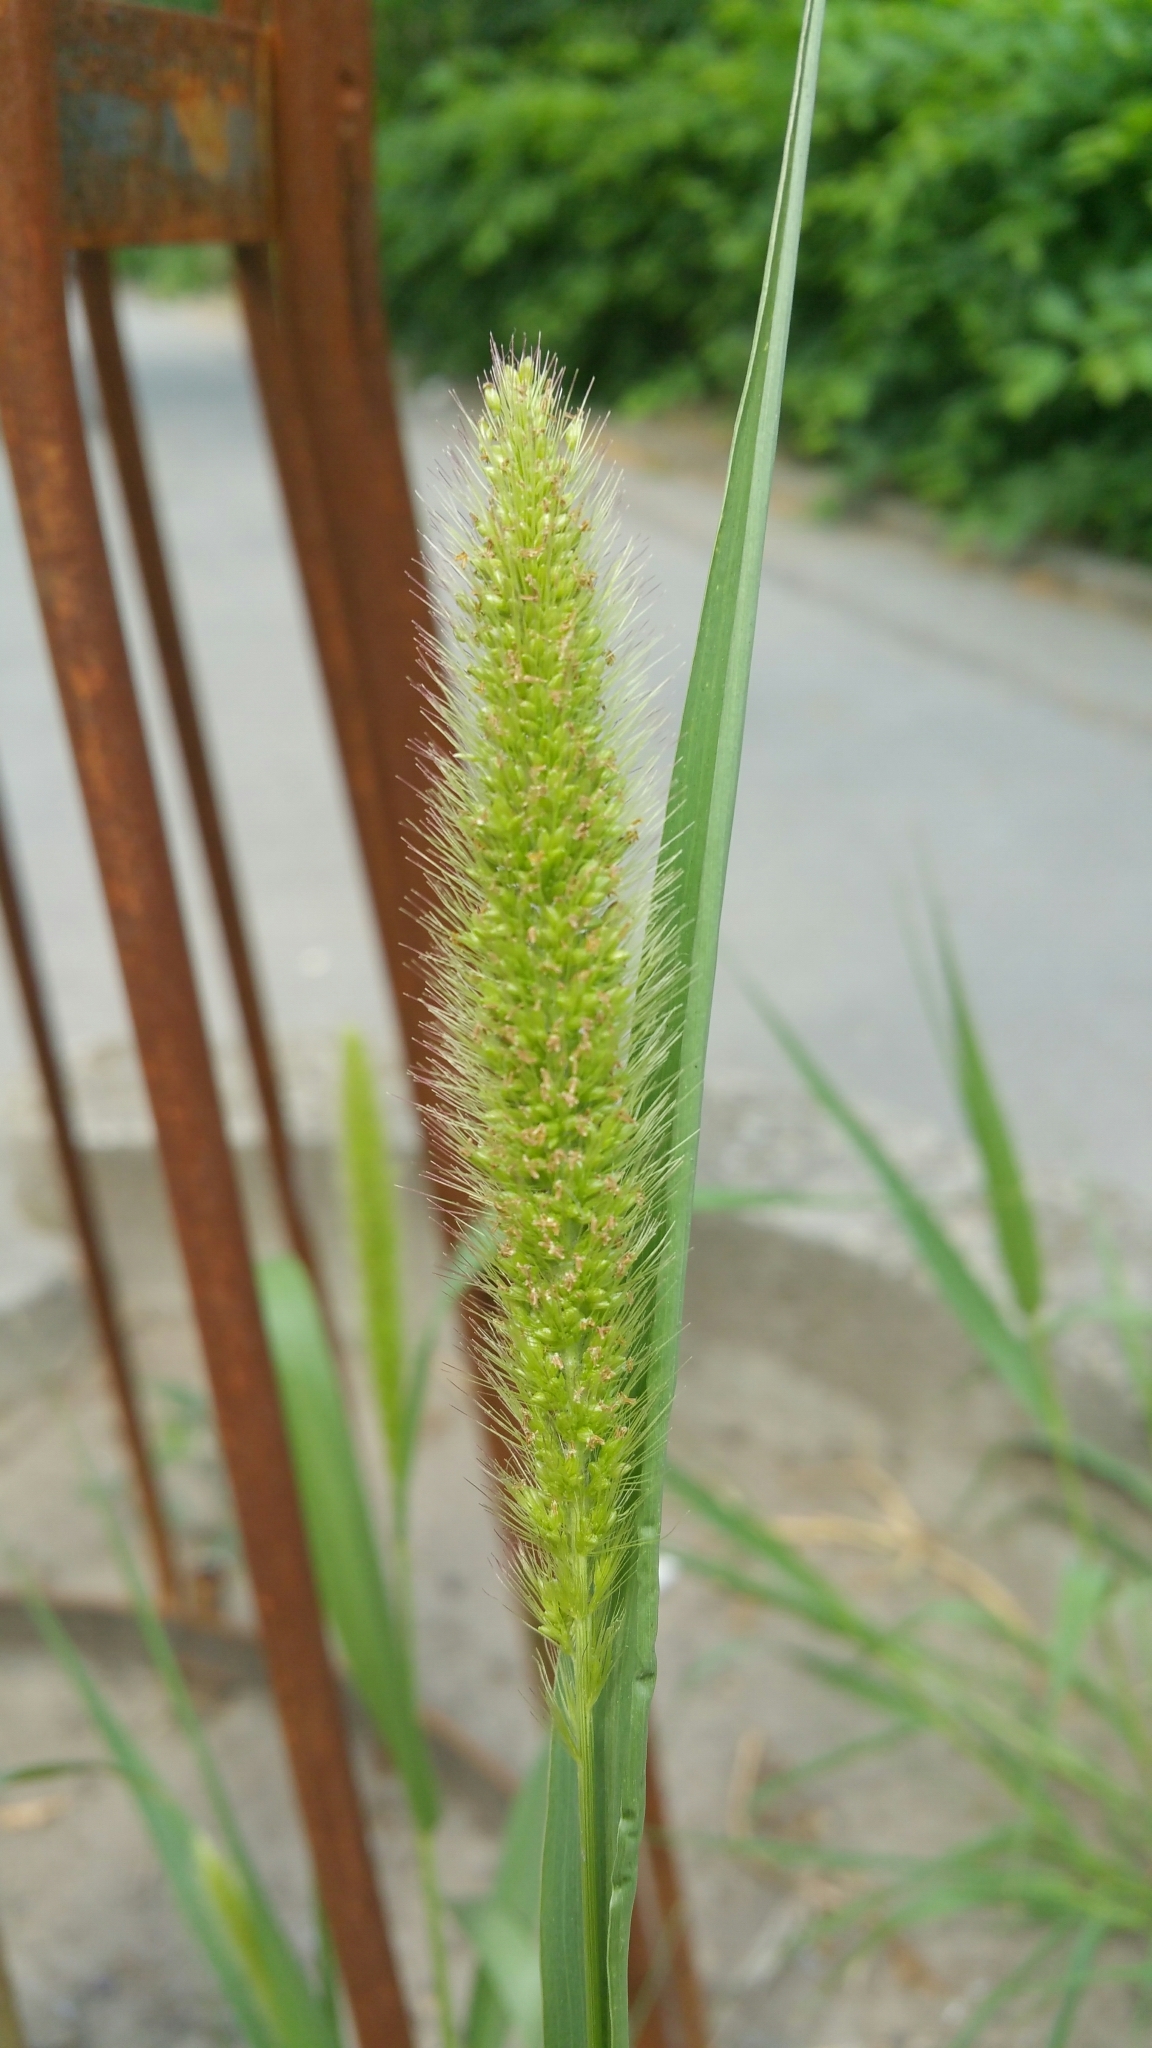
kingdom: Plantae
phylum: Tracheophyta
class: Liliopsida
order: Poales
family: Poaceae
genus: Setaria
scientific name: Setaria viridis
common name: Green bristlegrass
